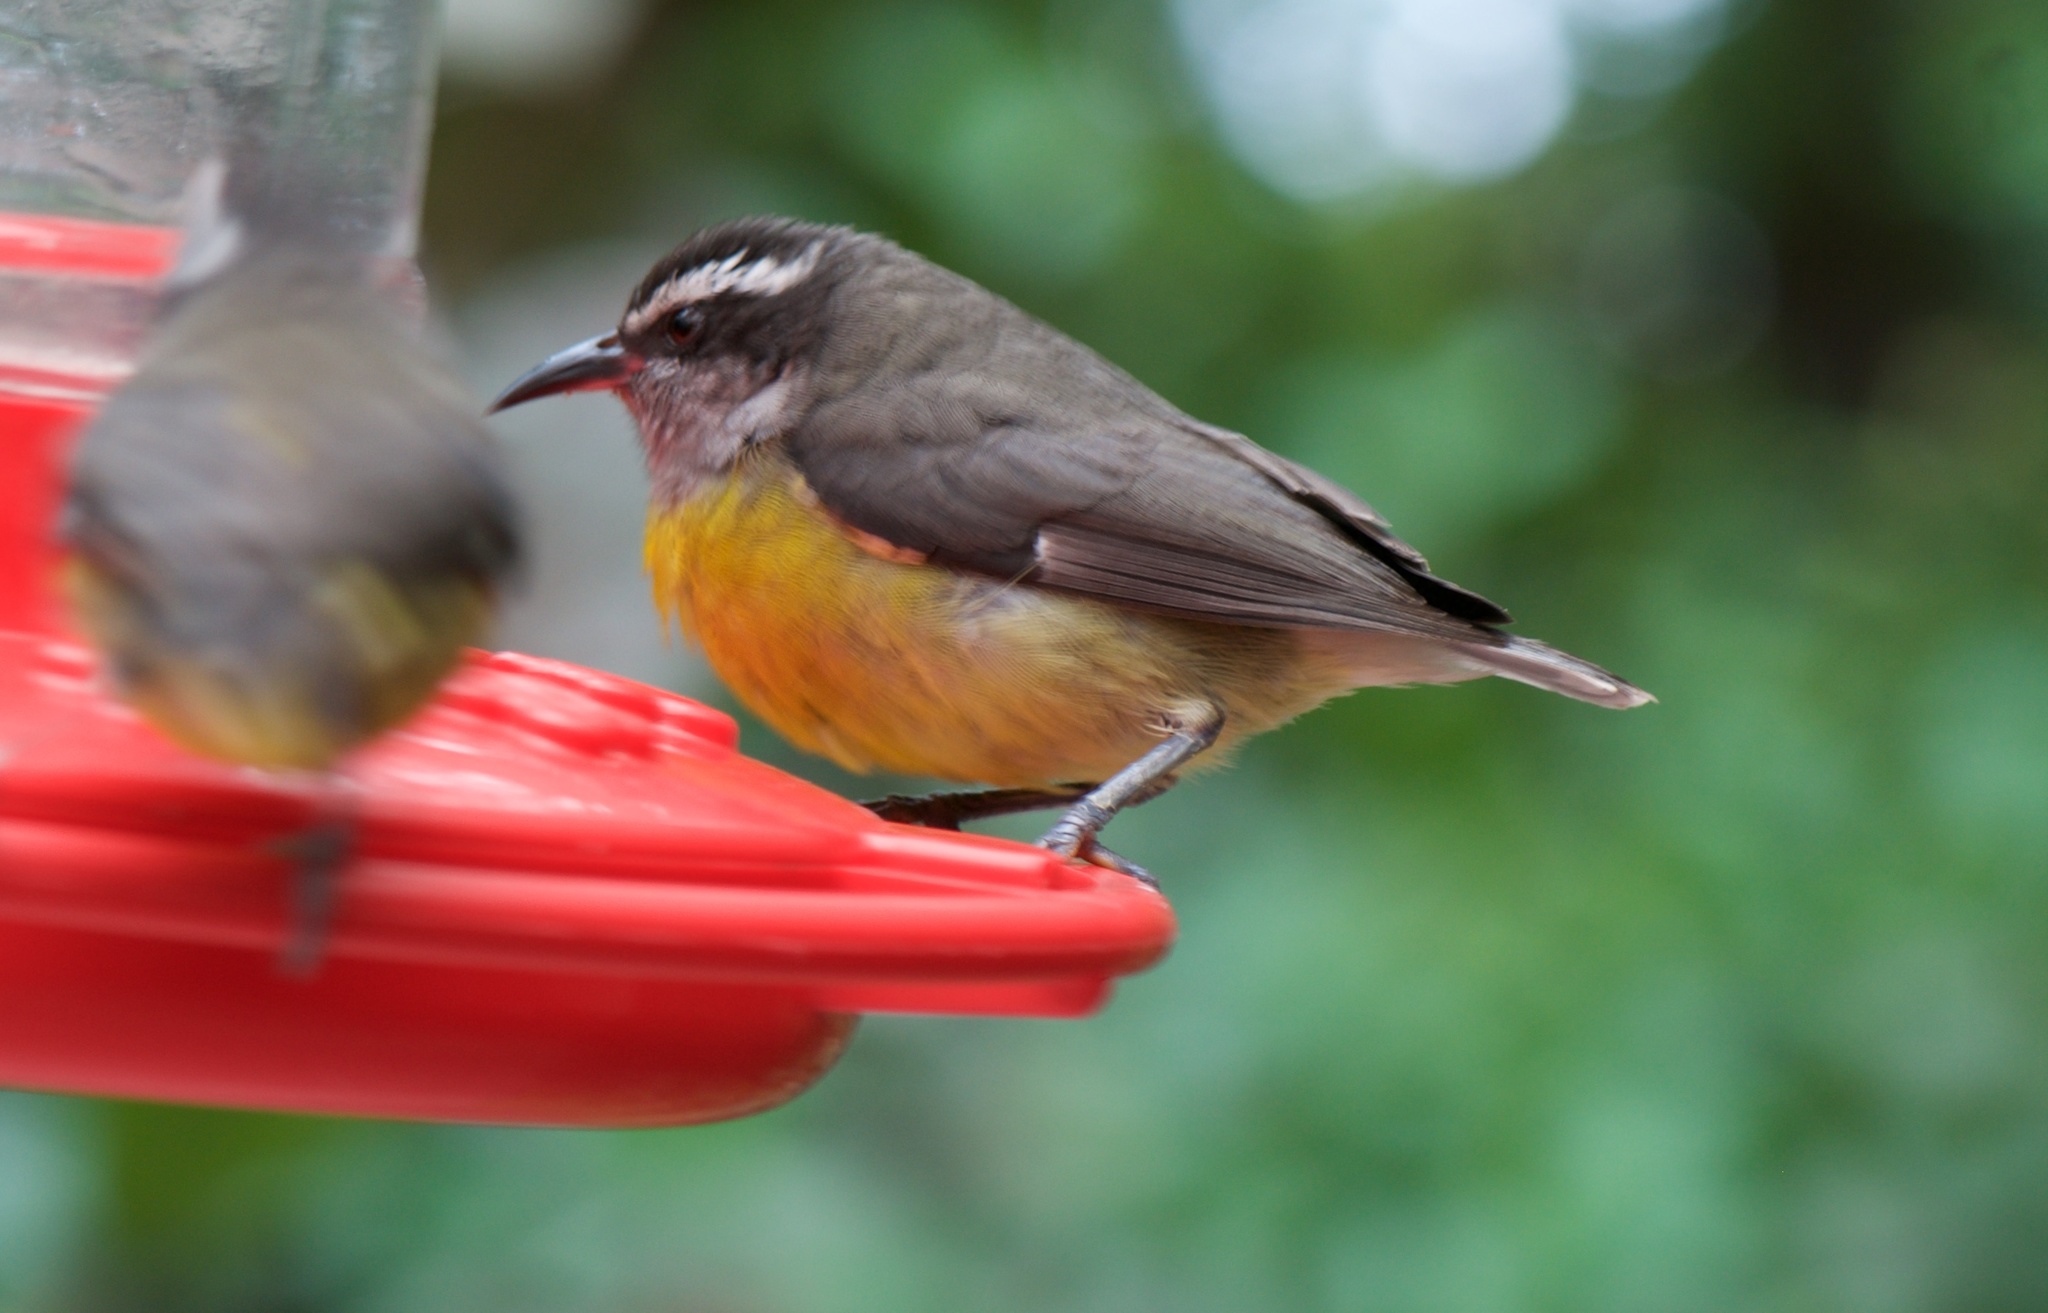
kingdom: Animalia
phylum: Chordata
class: Aves
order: Passeriformes
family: Thraupidae
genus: Coereba
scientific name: Coereba flaveola
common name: Bananaquit
